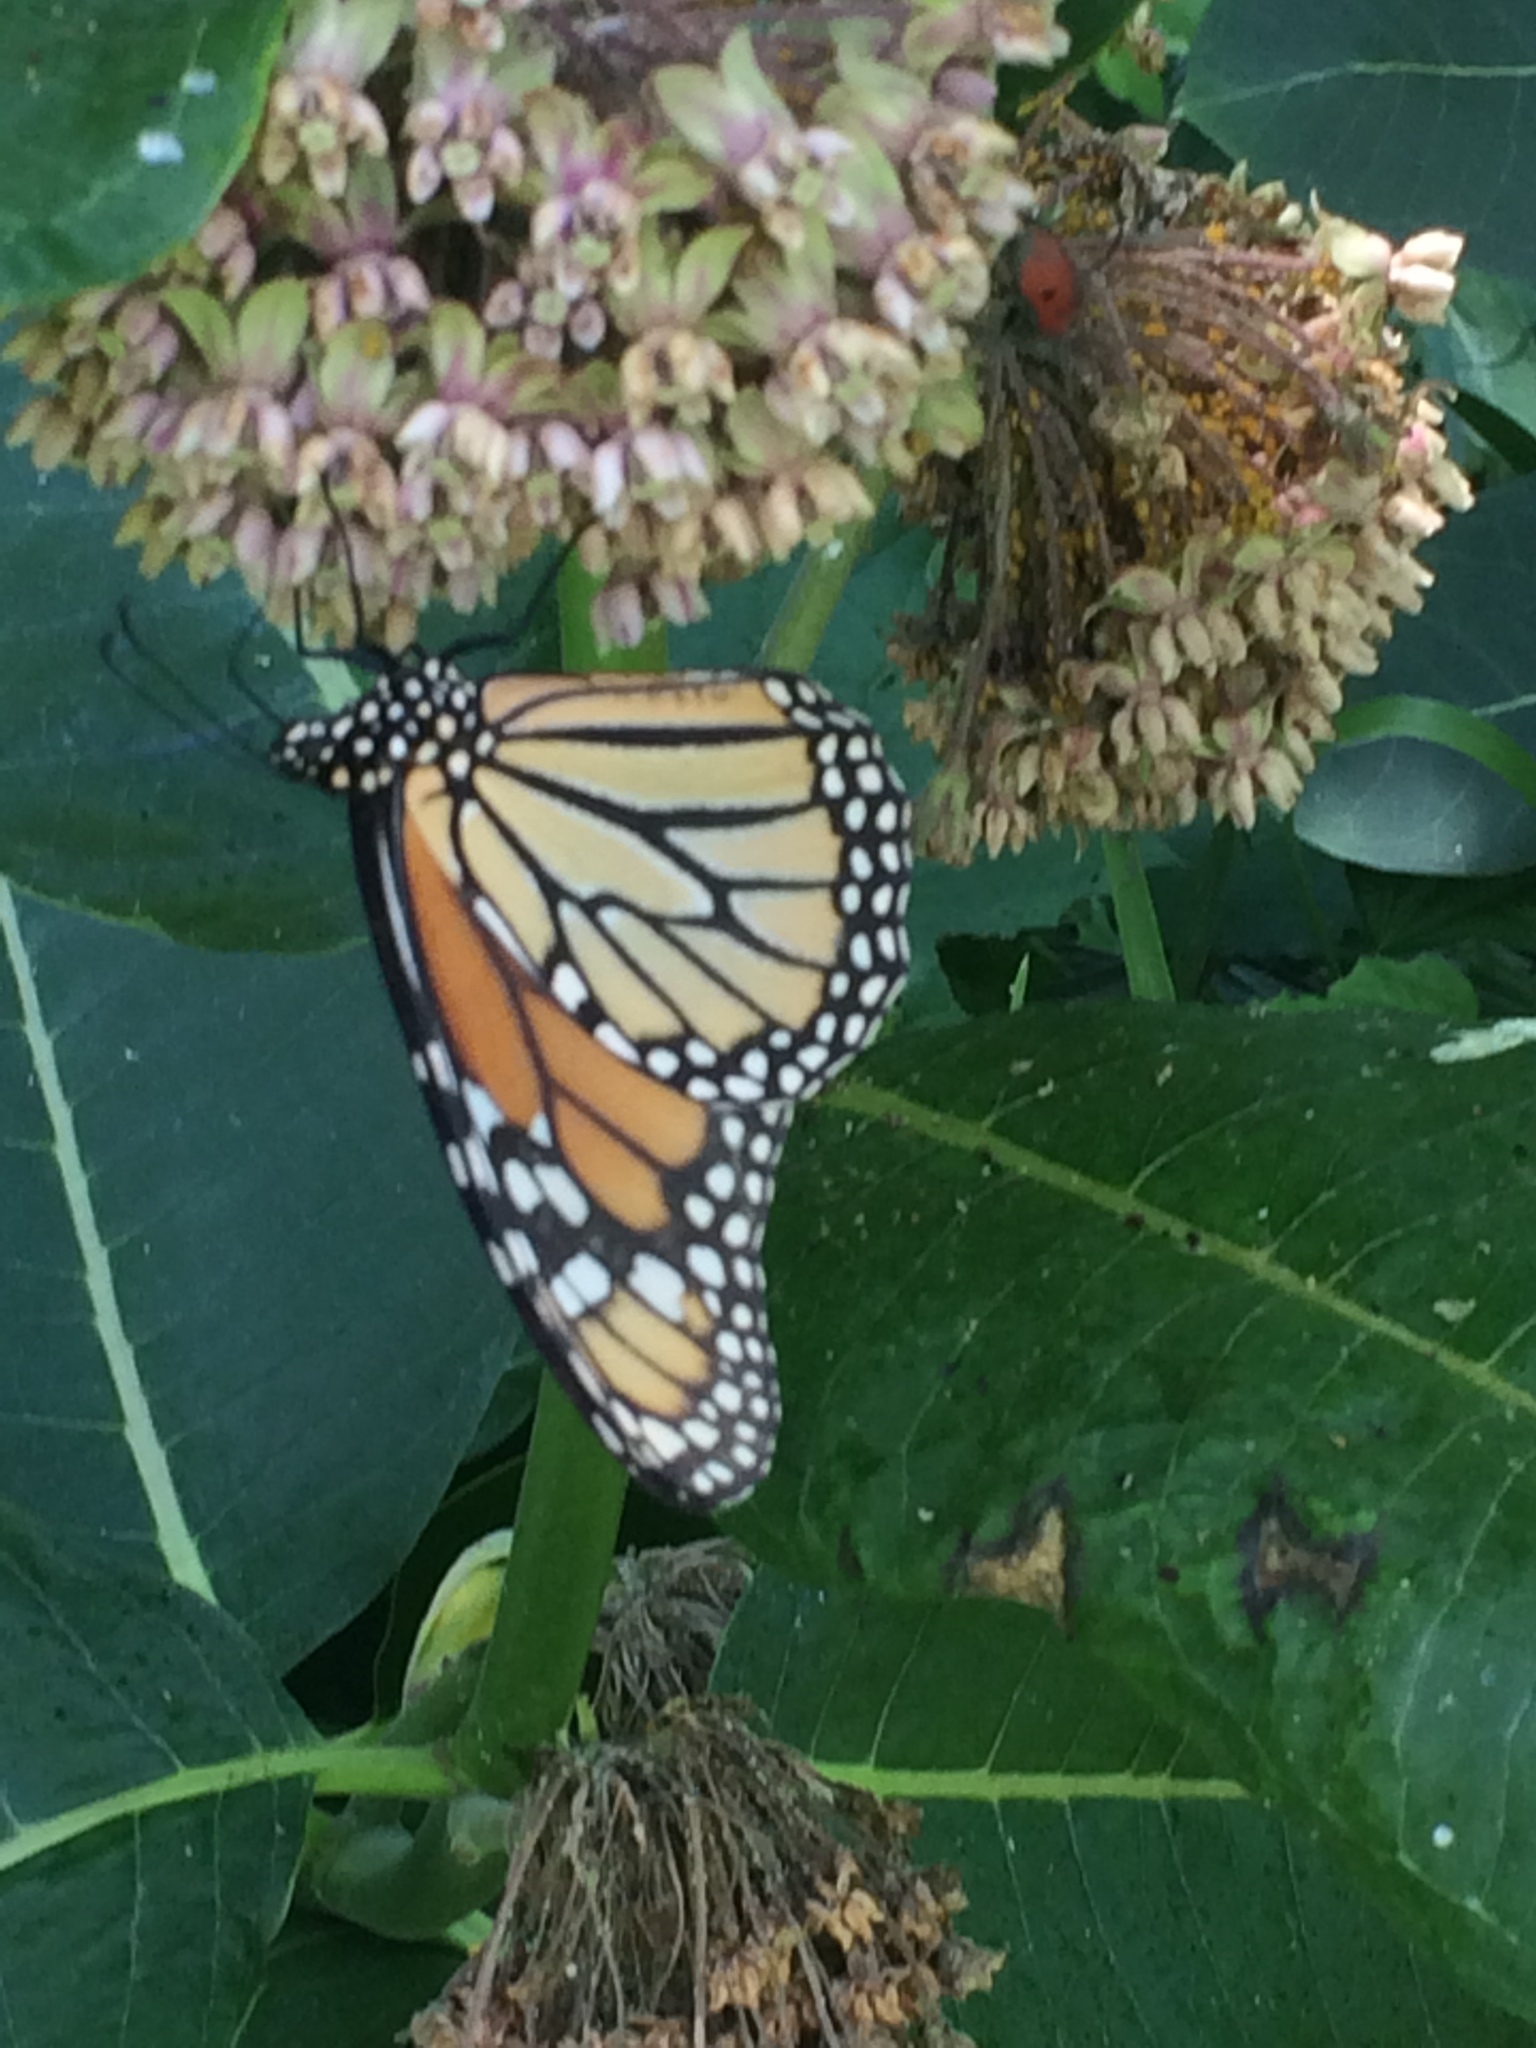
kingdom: Animalia
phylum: Arthropoda
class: Insecta
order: Lepidoptera
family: Nymphalidae
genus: Danaus
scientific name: Danaus plexippus
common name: Monarch
